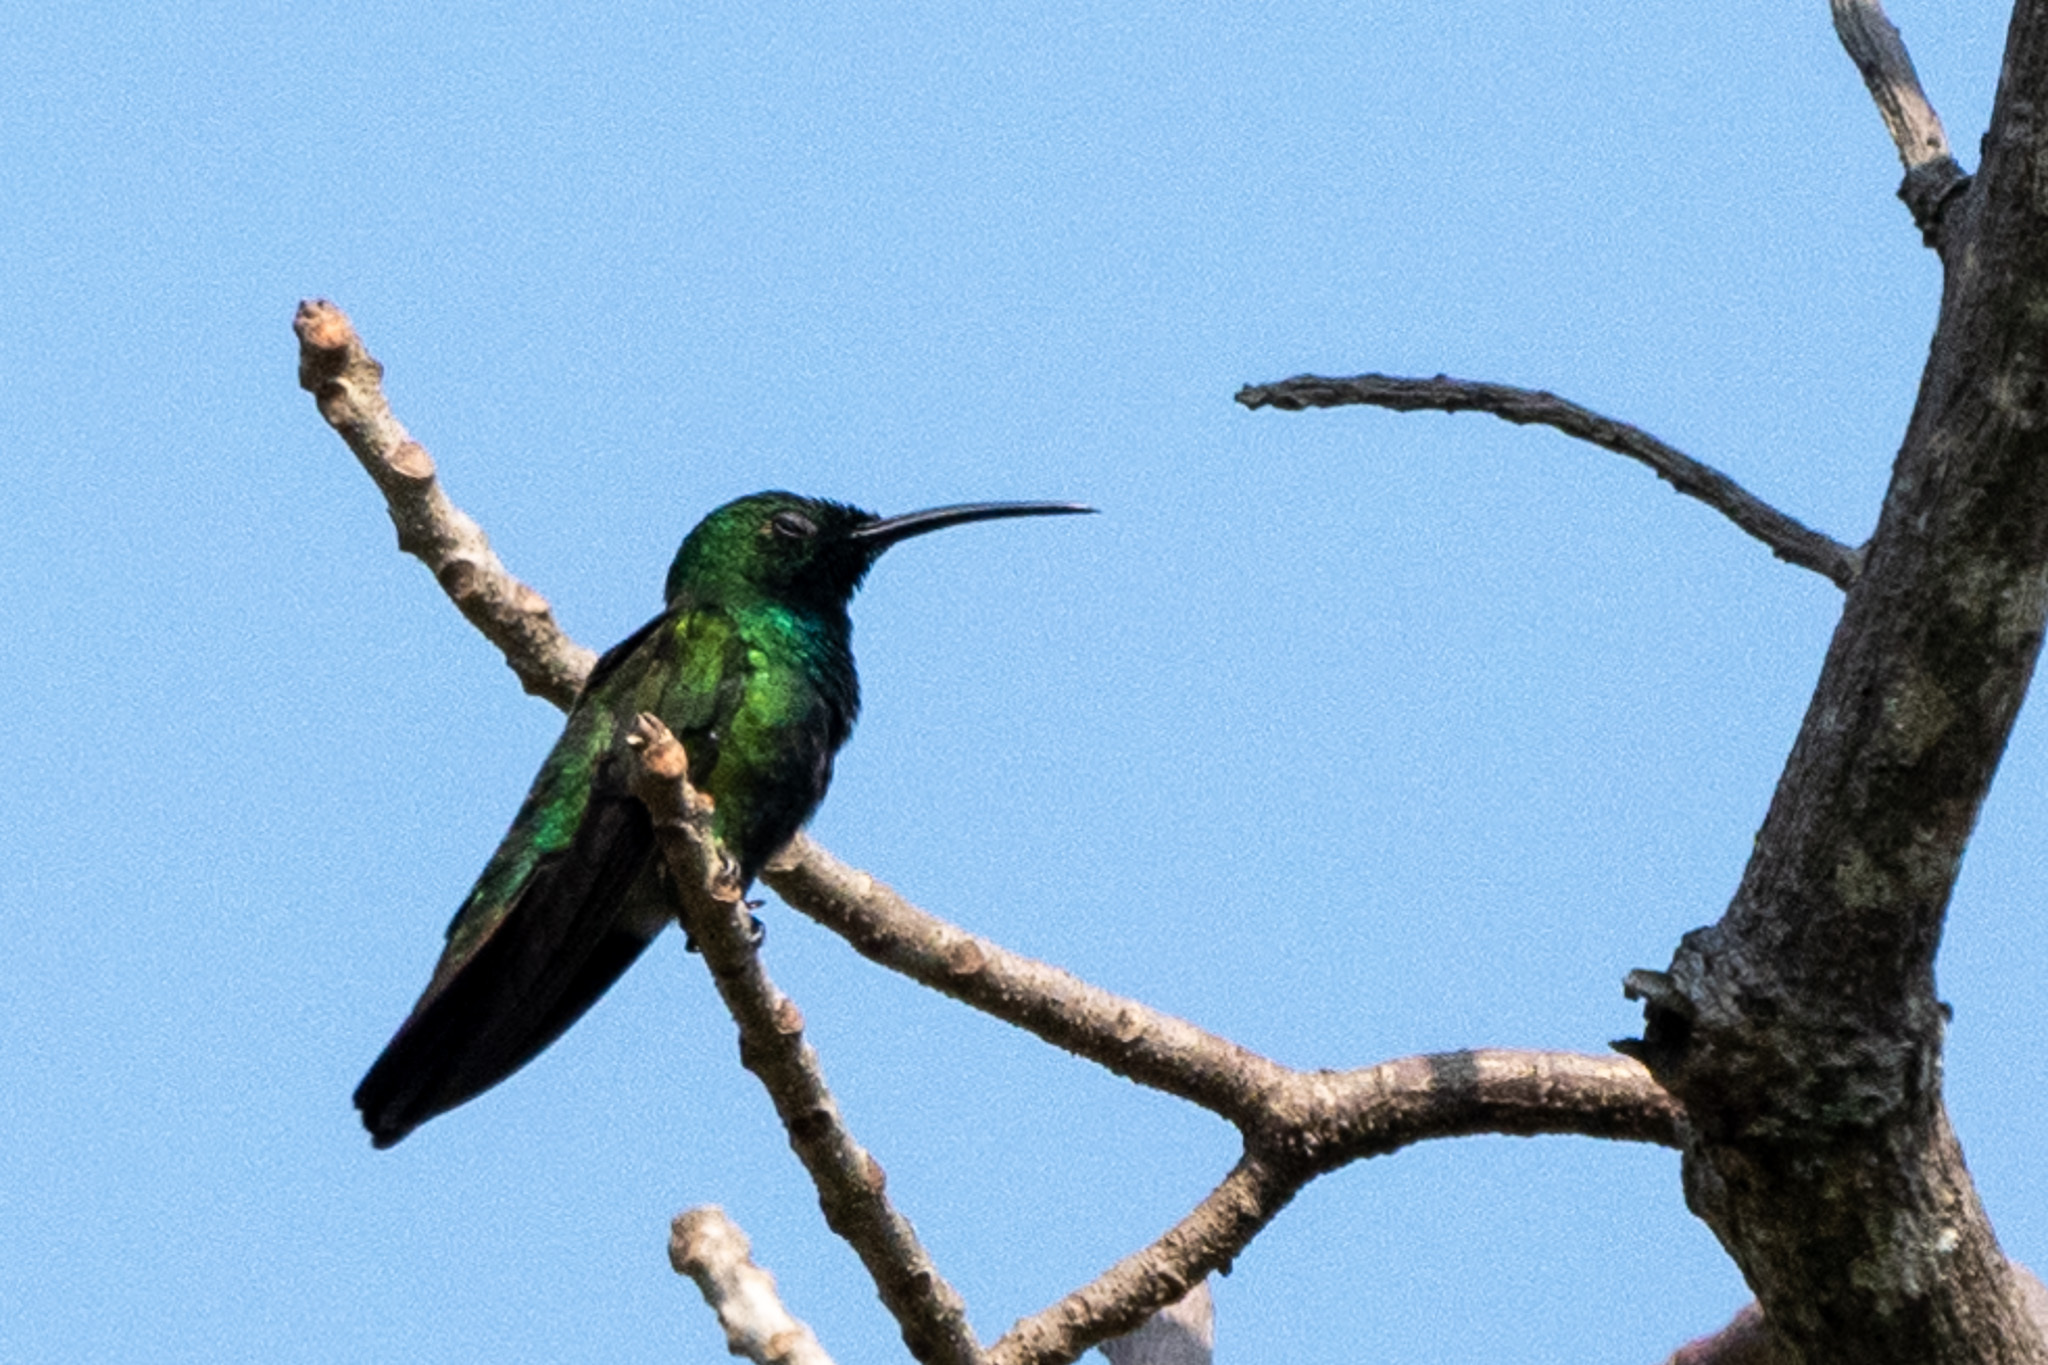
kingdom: Animalia
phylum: Chordata
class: Aves
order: Apodiformes
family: Trochilidae
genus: Anthracothorax
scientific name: Anthracothorax prevostii
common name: Green-breasted mango
